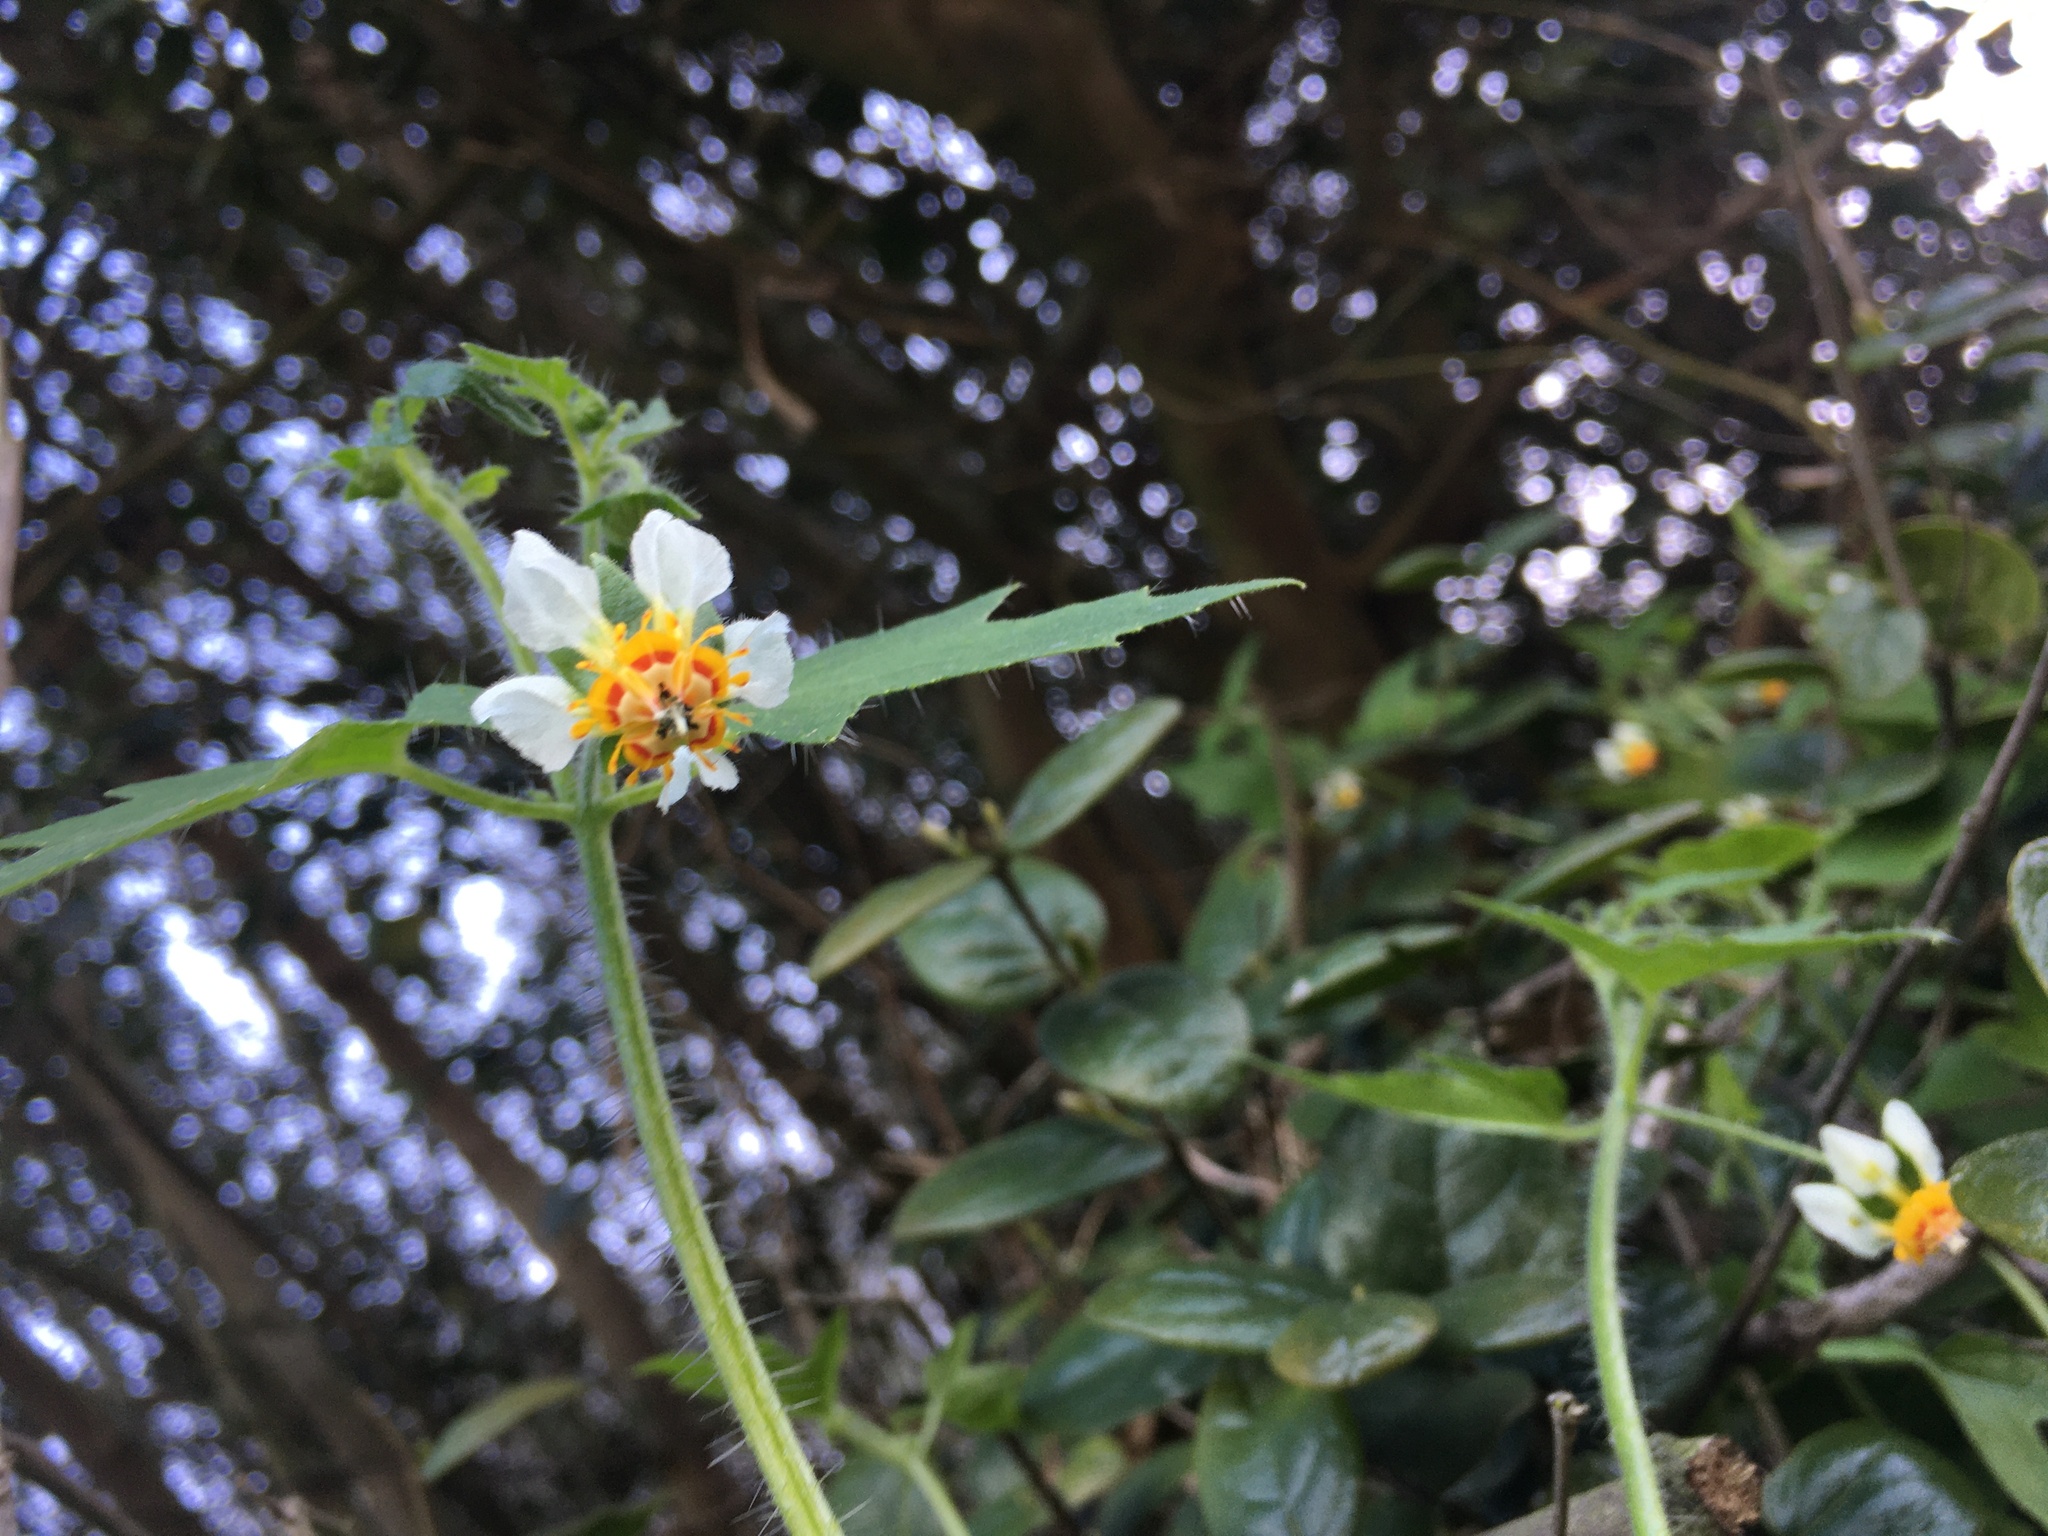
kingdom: Plantae
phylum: Tracheophyta
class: Magnoliopsida
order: Cornales
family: Loasaceae
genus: Loasa
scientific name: Loasa triloba
